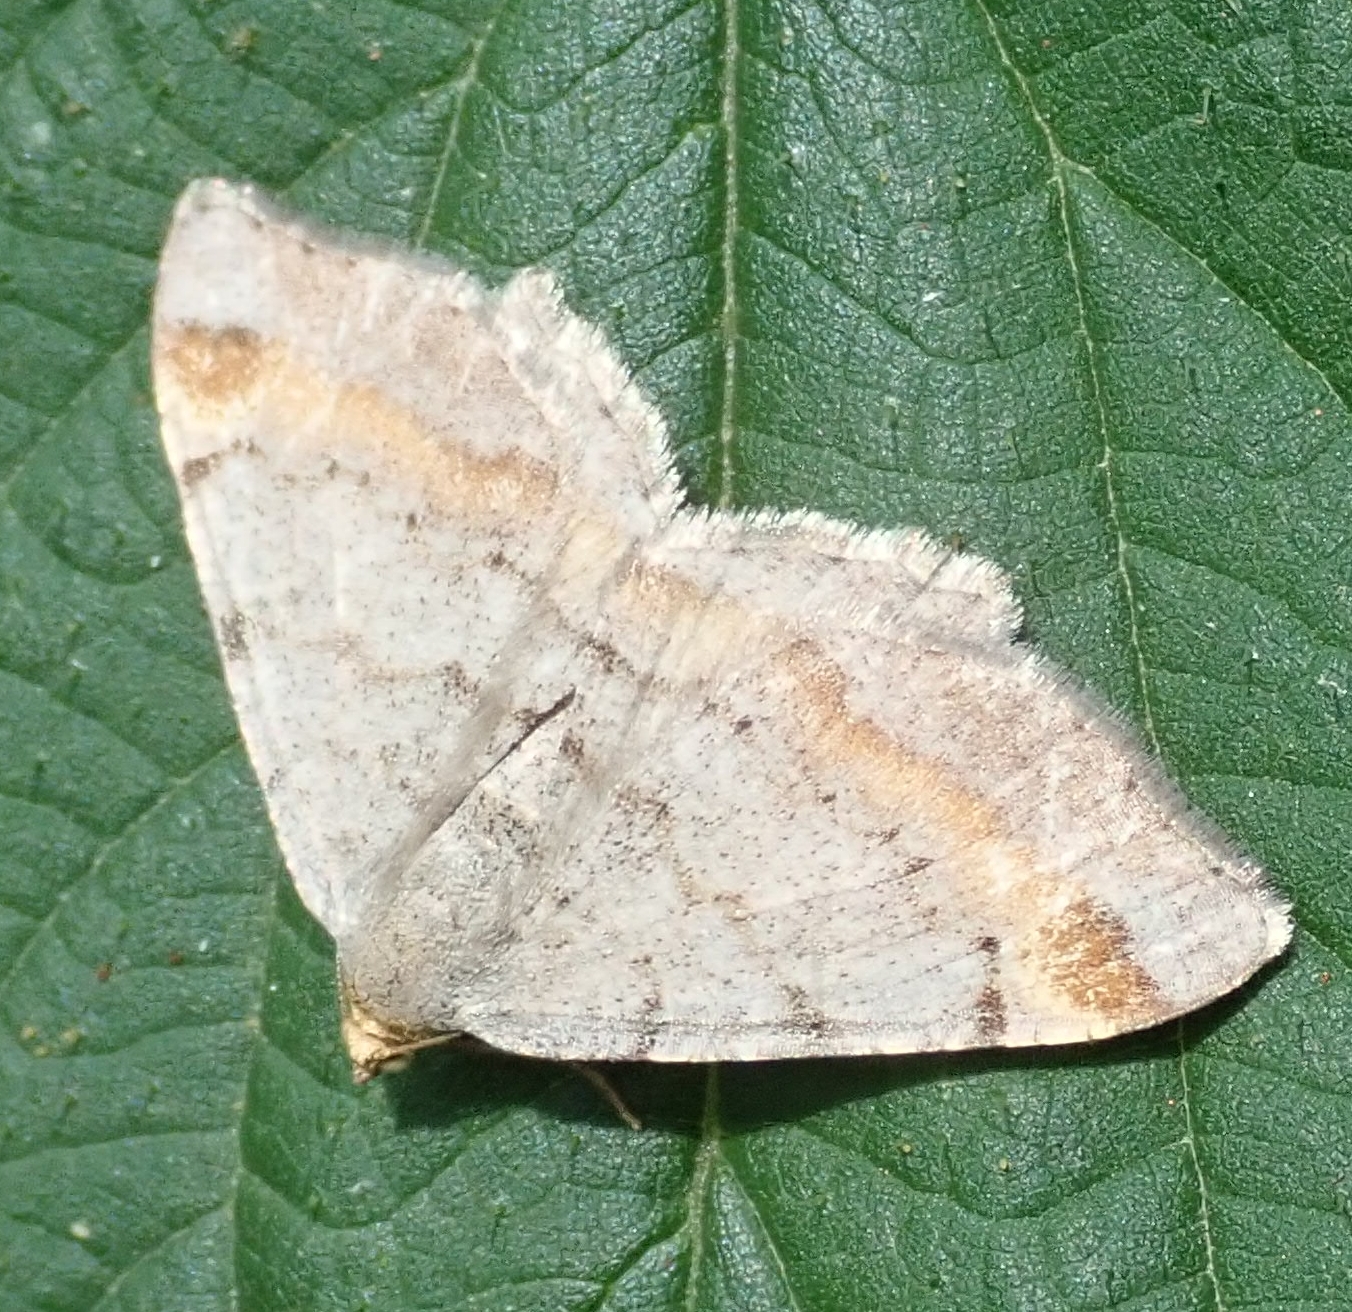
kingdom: Animalia
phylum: Arthropoda
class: Insecta
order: Lepidoptera
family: Geometridae
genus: Macaria
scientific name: Macaria liturata
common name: Tawny-barred angle
